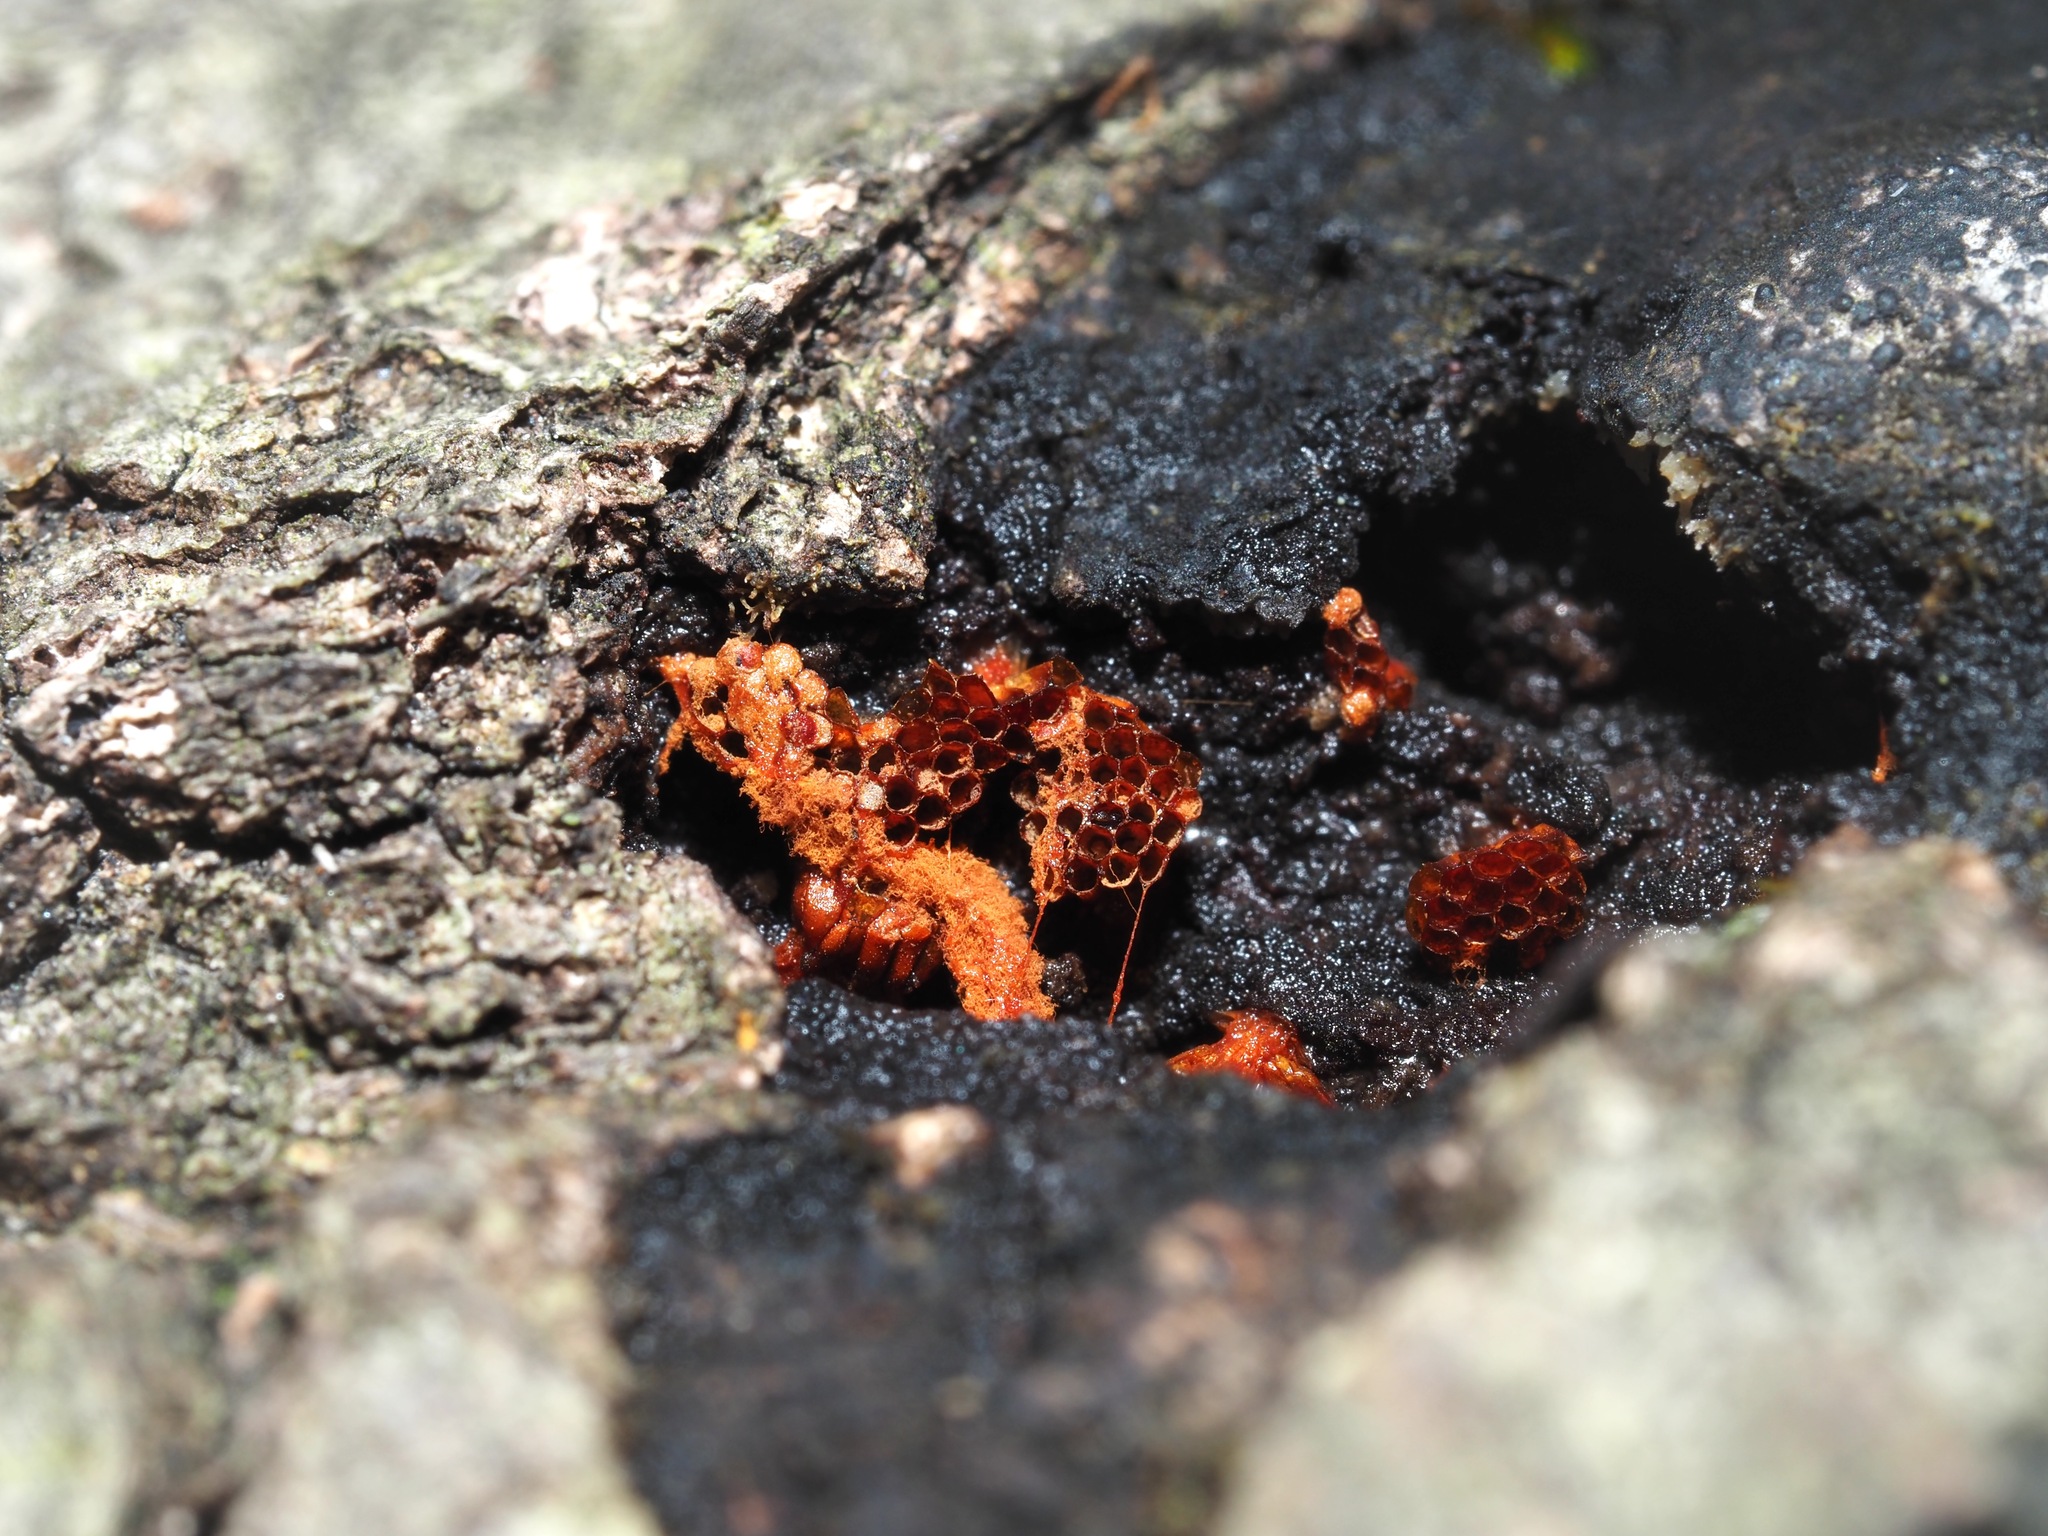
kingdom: Protozoa
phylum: Mycetozoa
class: Myxomycetes
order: Trichiales
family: Trichiaceae
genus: Metatrichia
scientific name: Metatrichia vesparia
